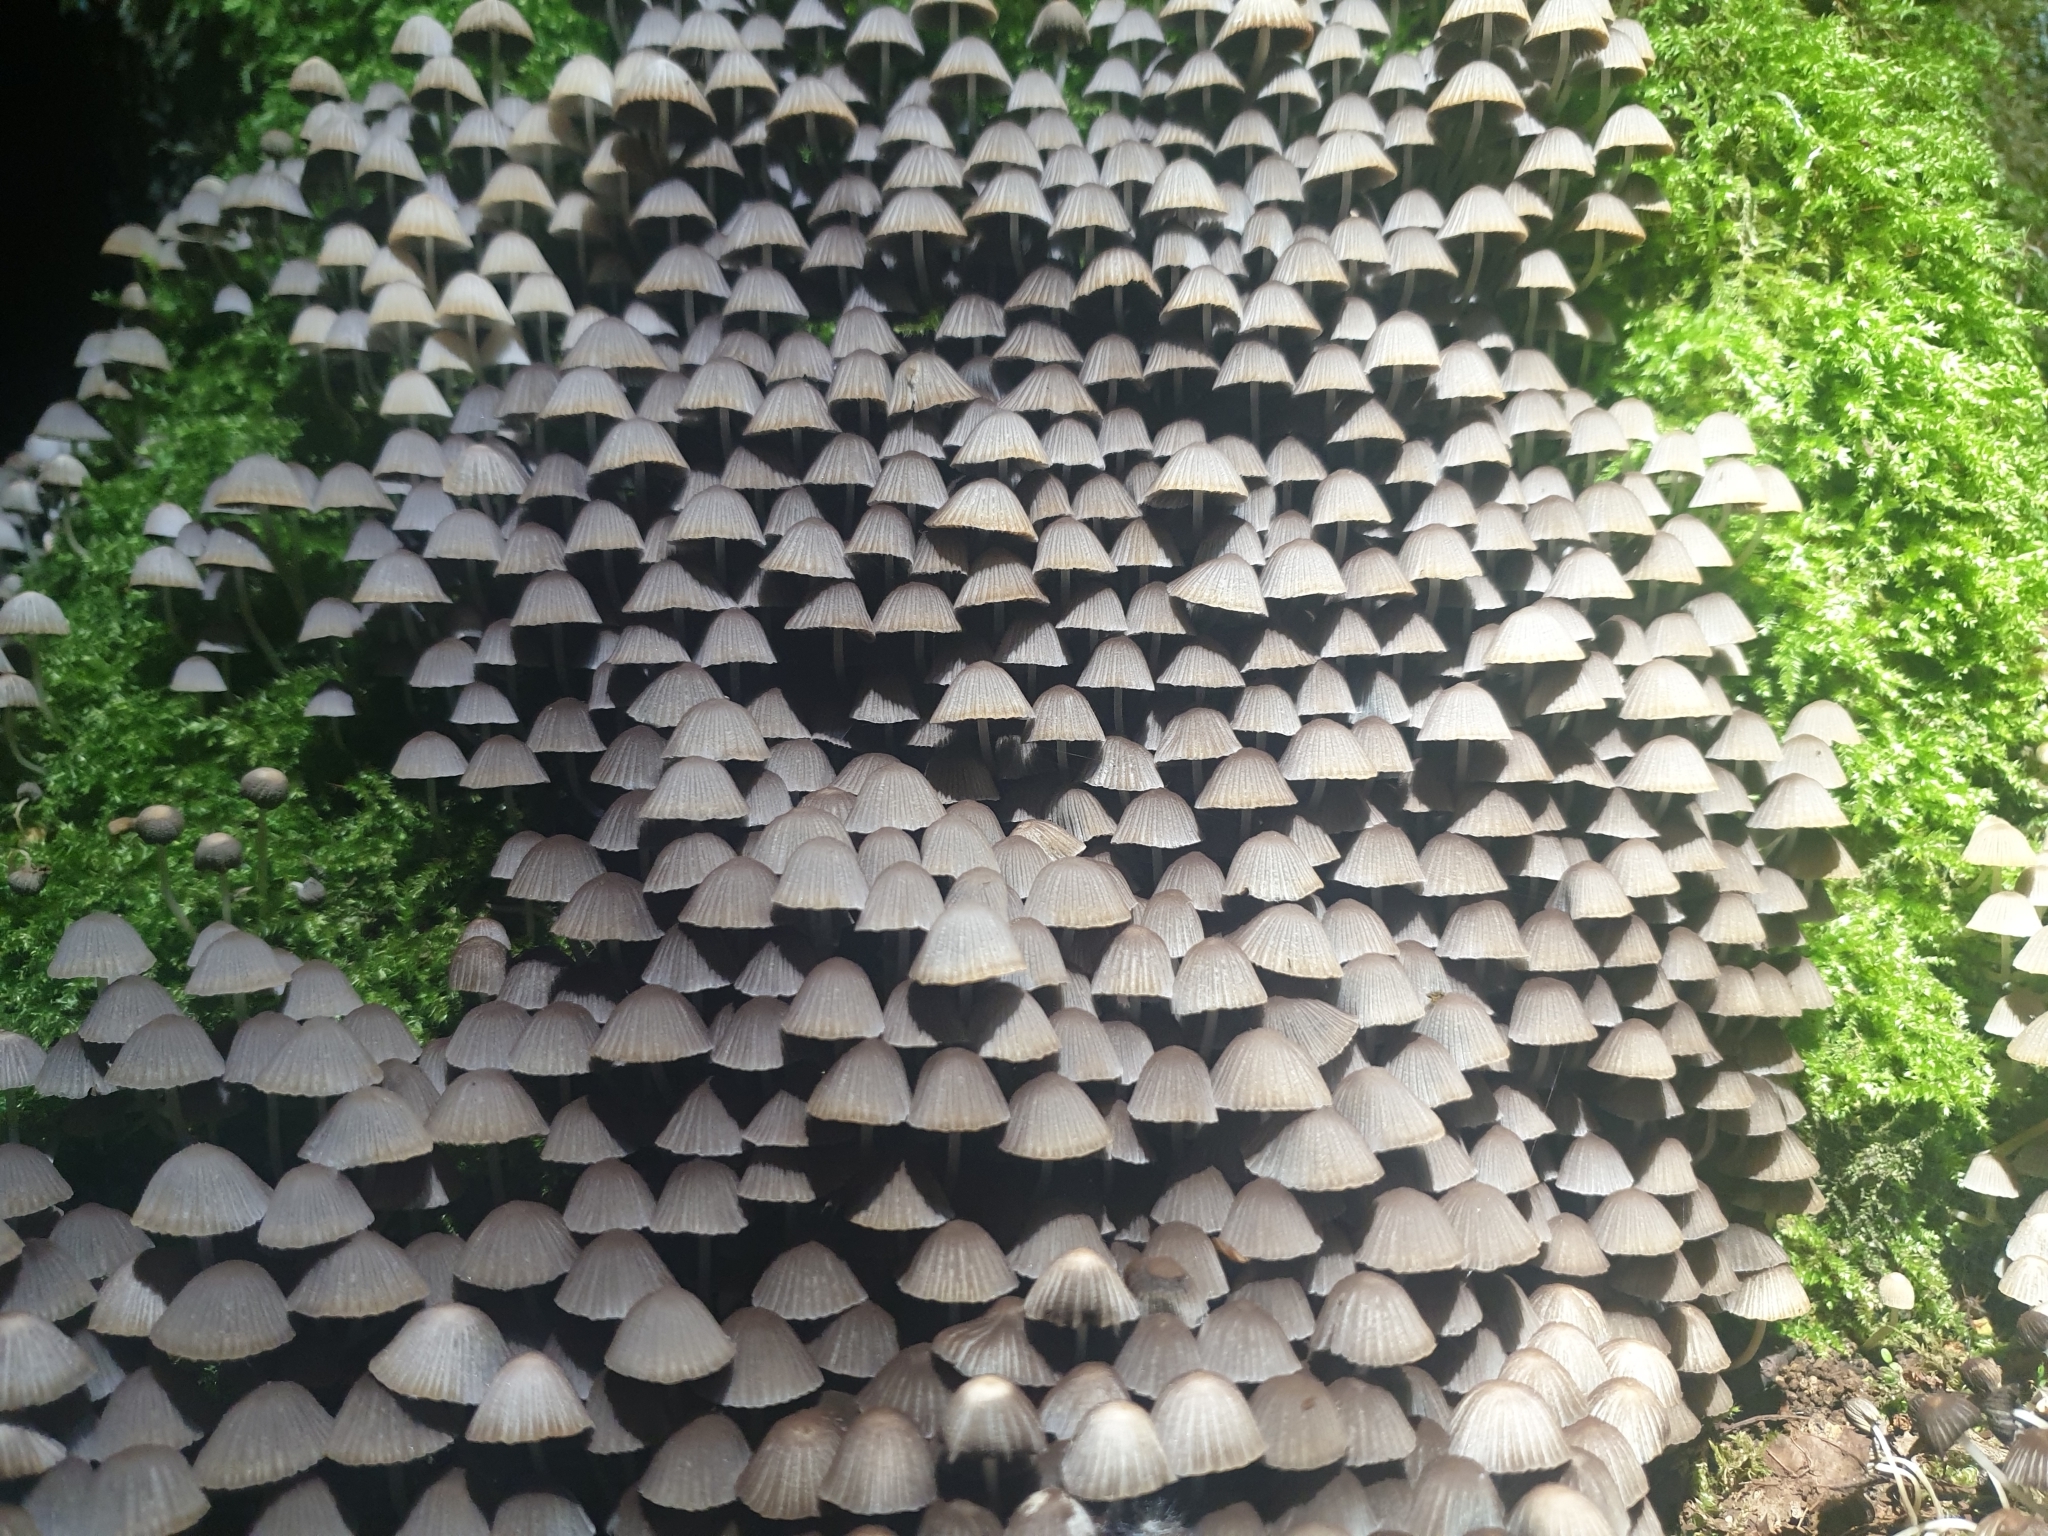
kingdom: Fungi
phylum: Basidiomycota
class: Agaricomycetes
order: Agaricales
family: Psathyrellaceae
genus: Coprinellus
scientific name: Coprinellus disseminatus
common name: Fairies' bonnets
